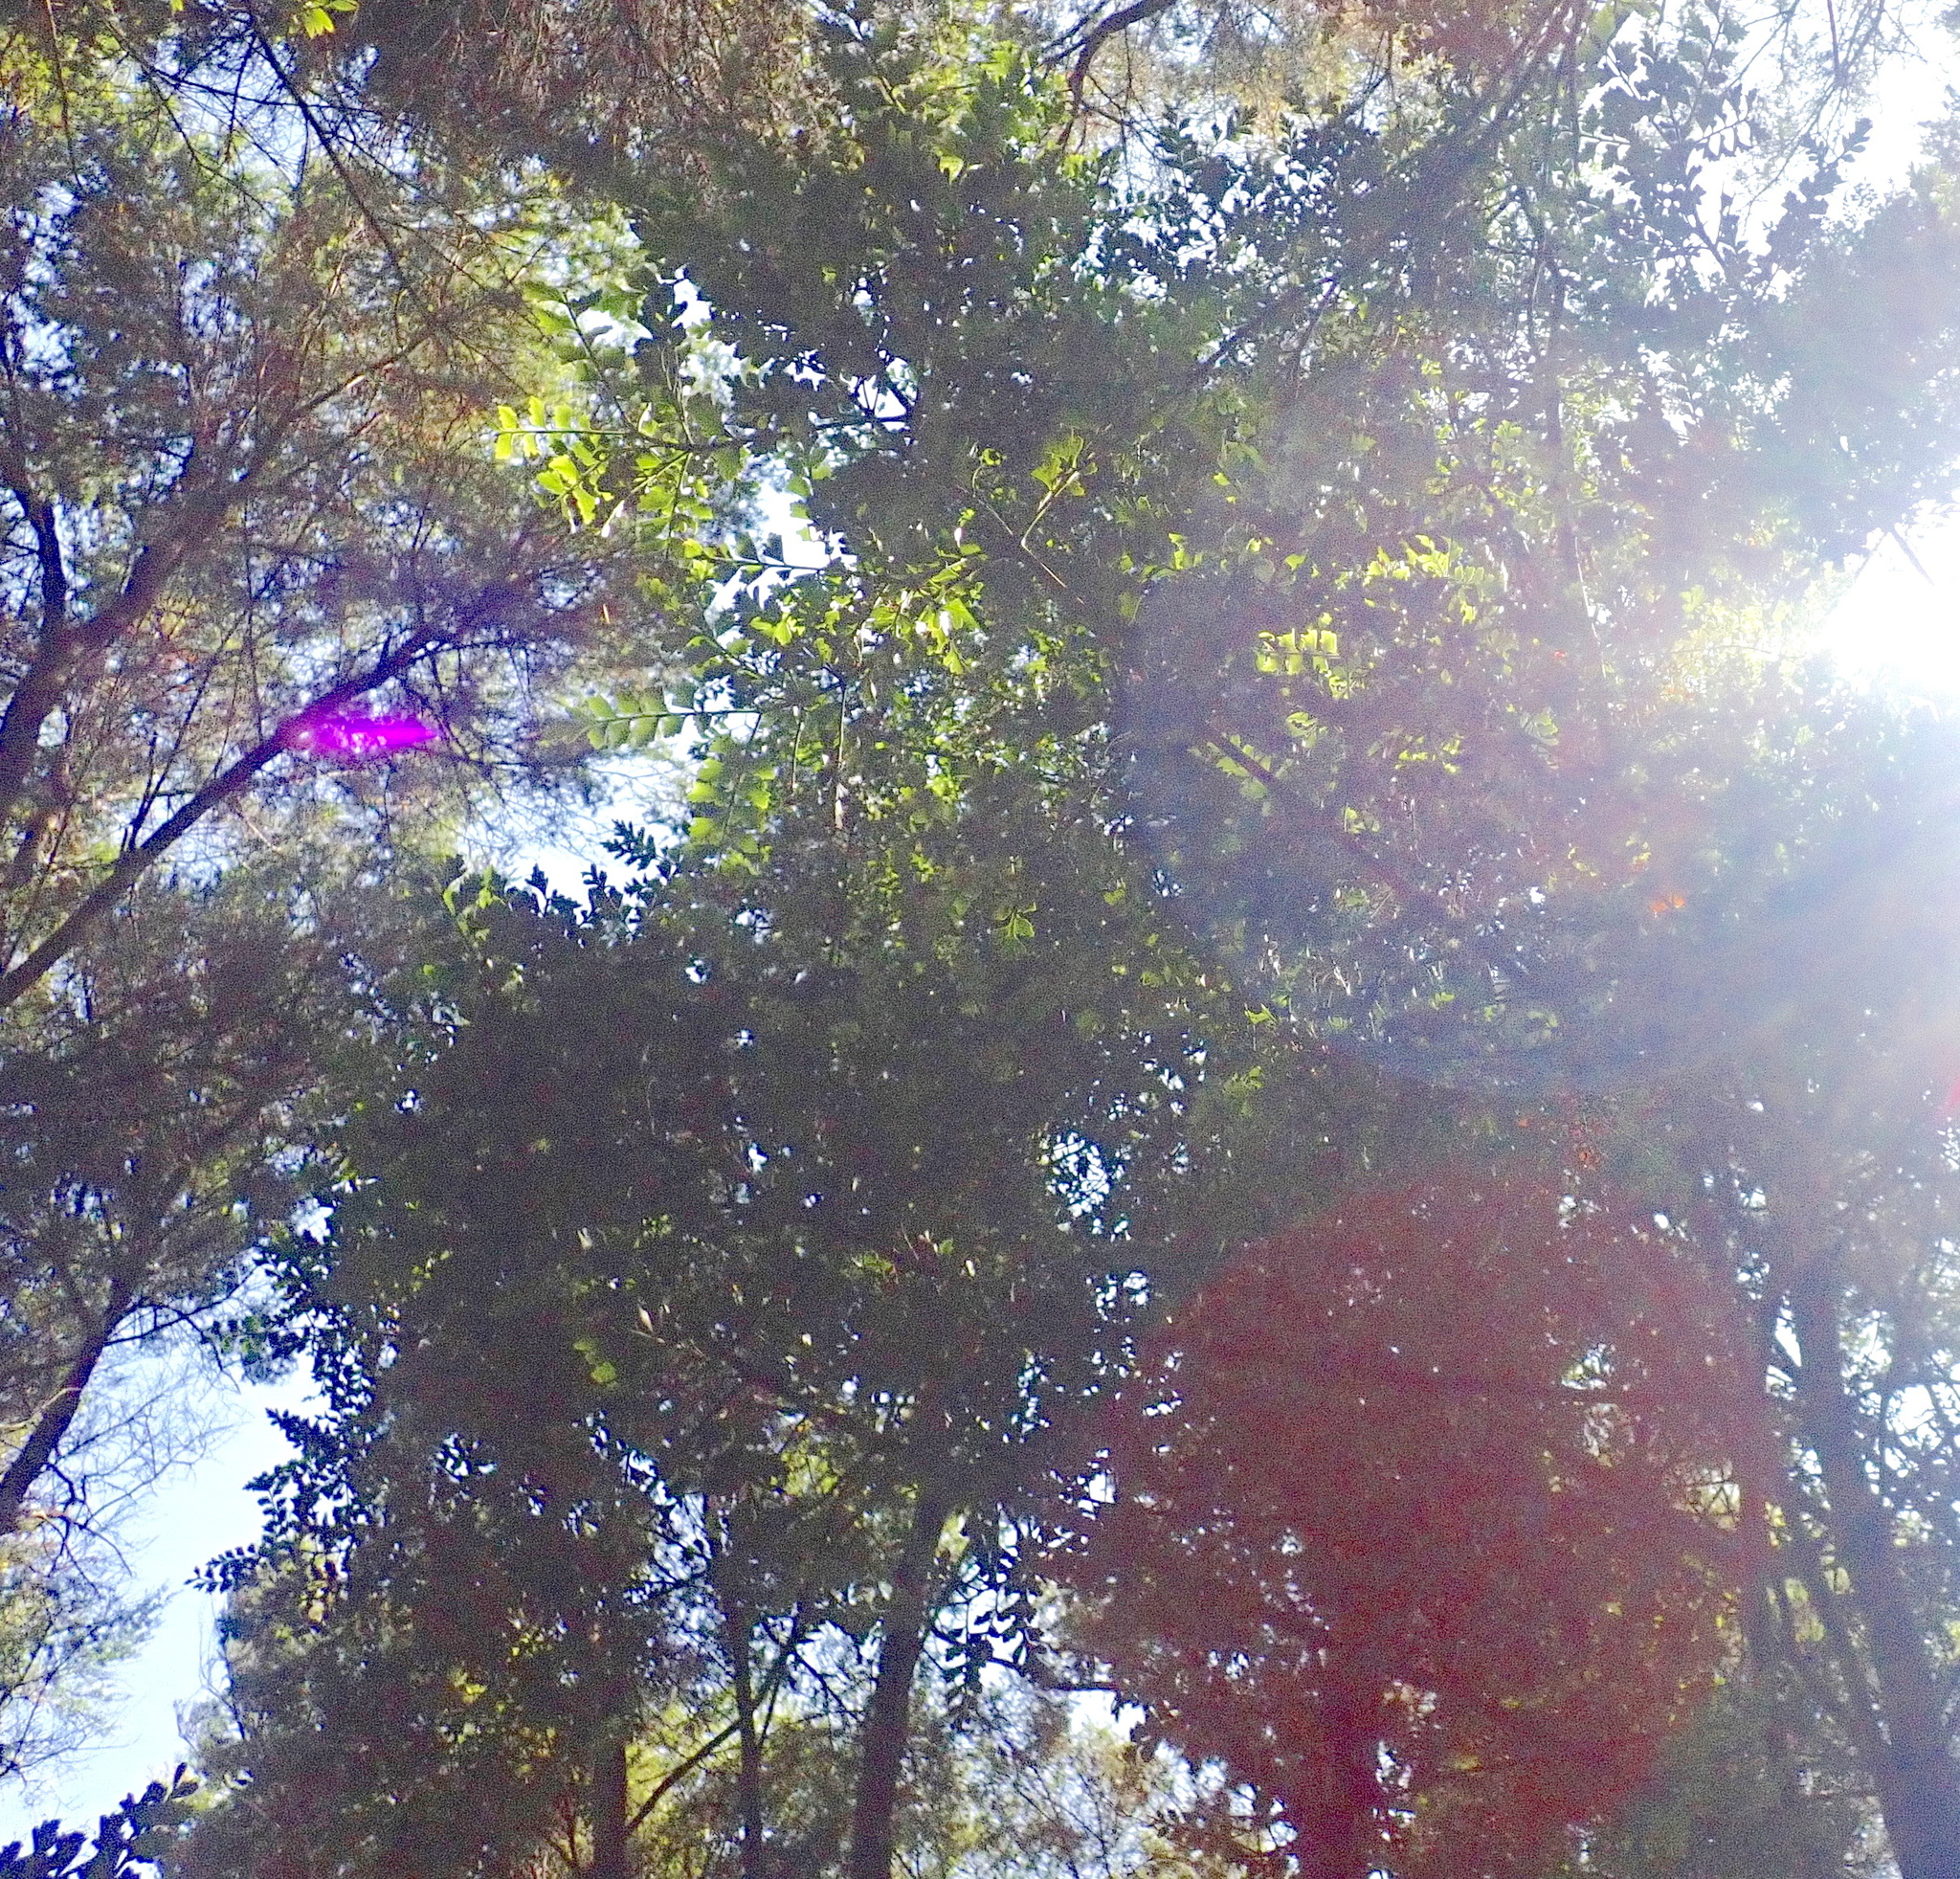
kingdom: Plantae
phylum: Tracheophyta
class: Pinopsida
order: Pinales
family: Phyllocladaceae
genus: Phyllocladus
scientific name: Phyllocladus trichomanoides
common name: Celery pine
